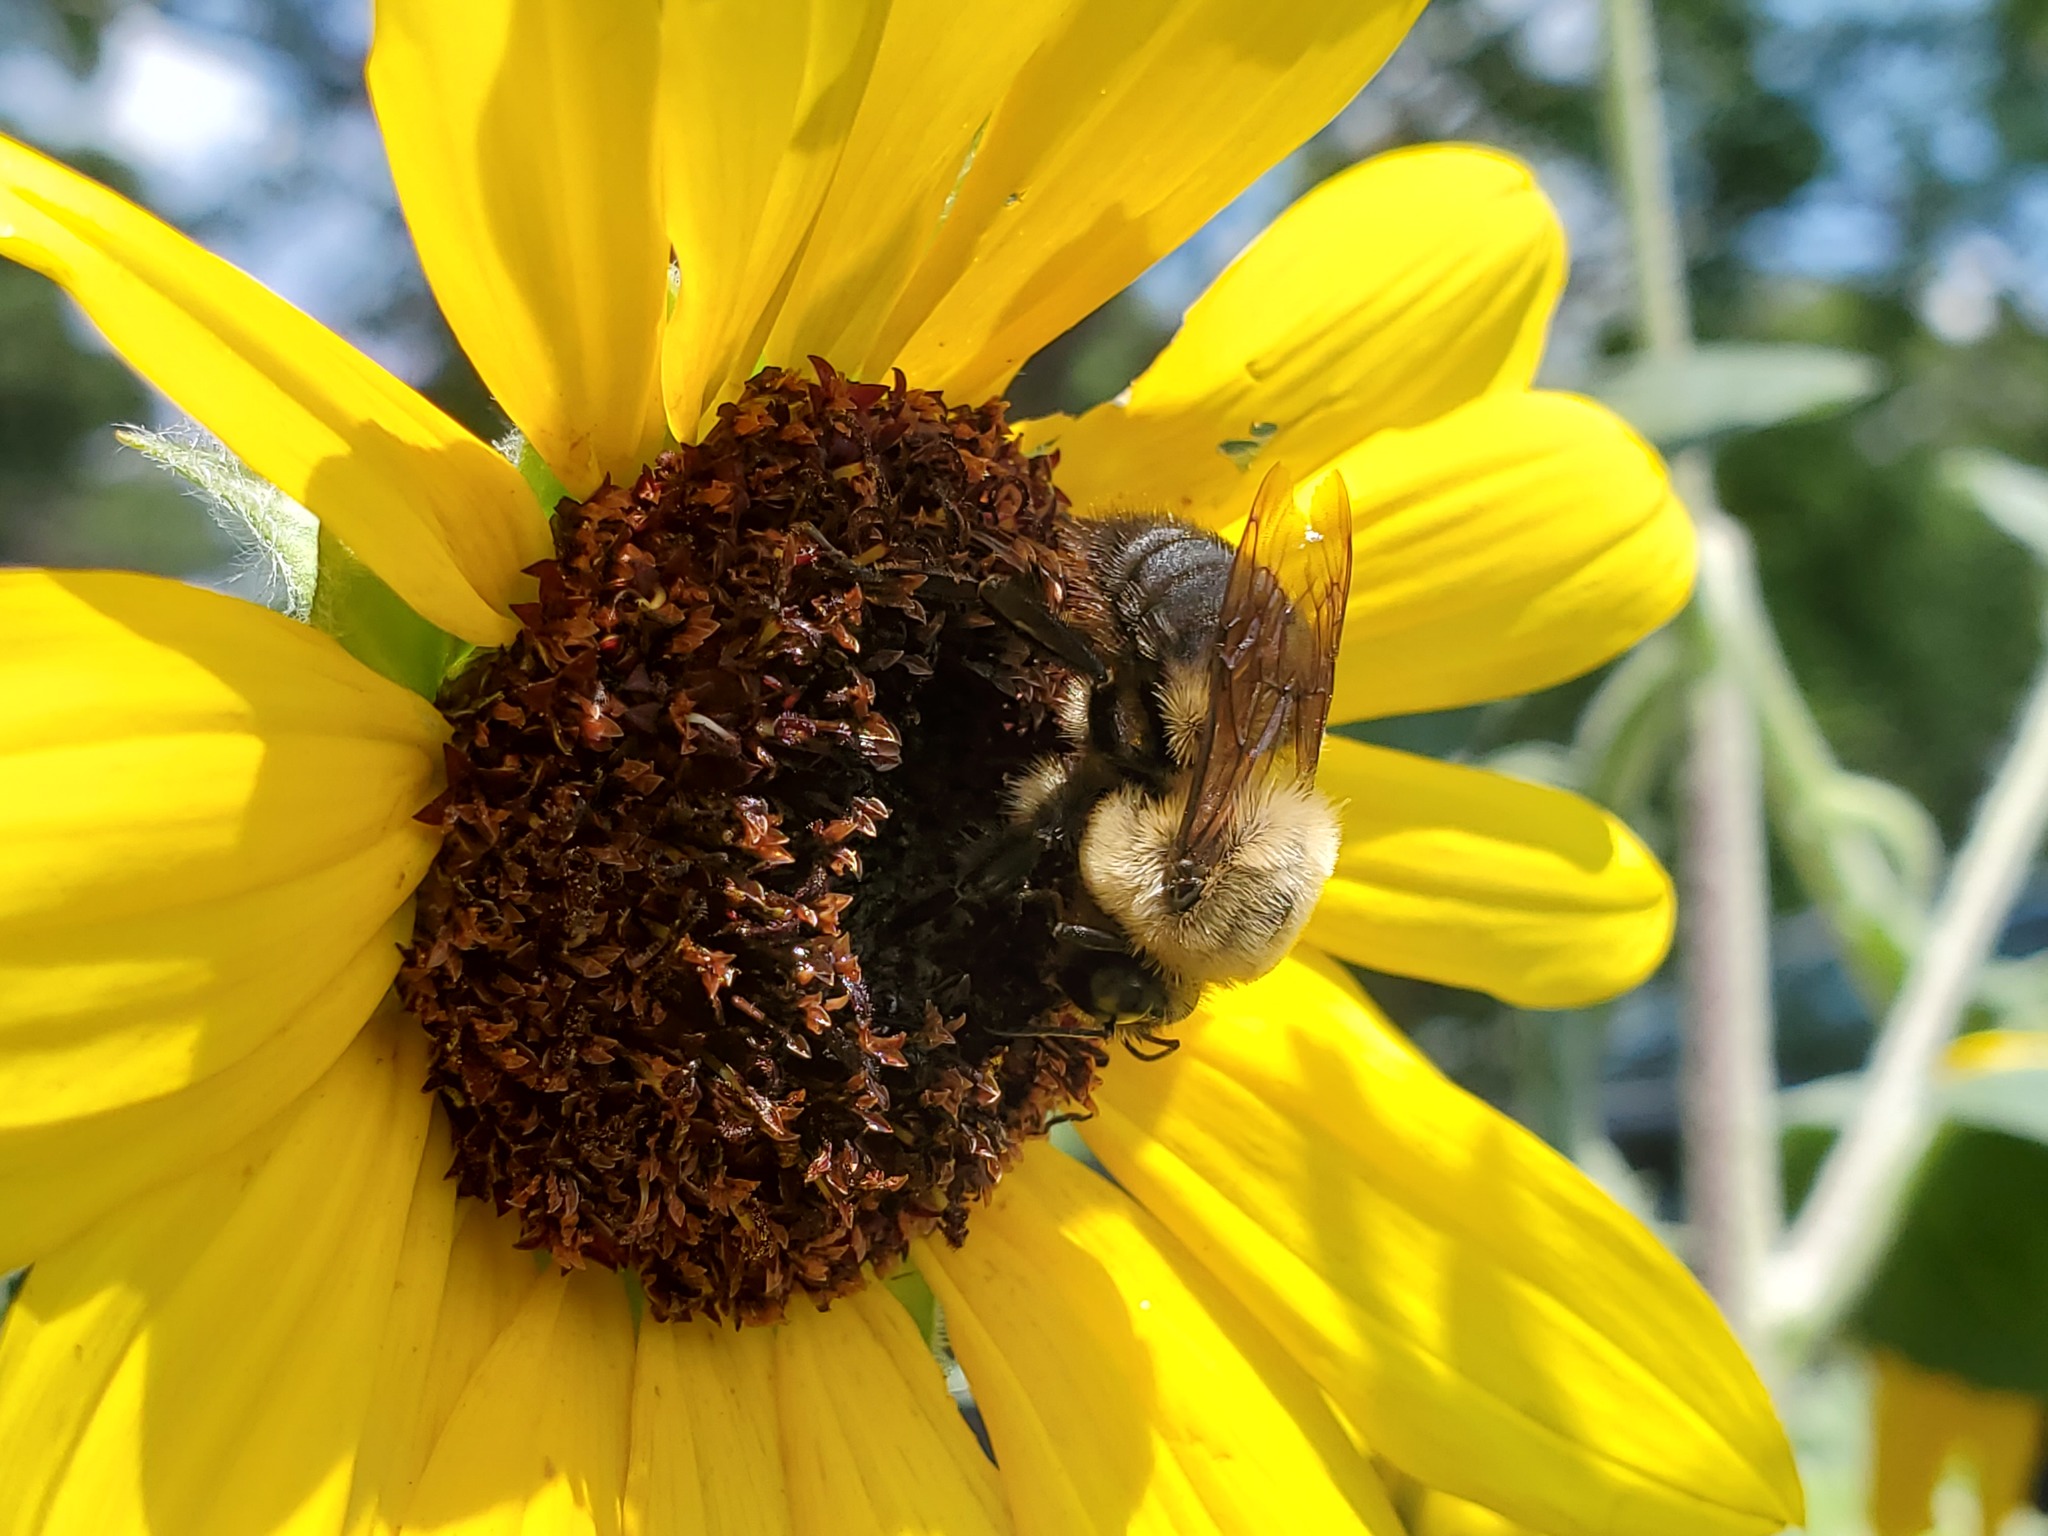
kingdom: Animalia
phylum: Arthropoda
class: Insecta
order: Hymenoptera
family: Apidae
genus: Bombus
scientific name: Bombus impatiens
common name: Common eastern bumble bee
